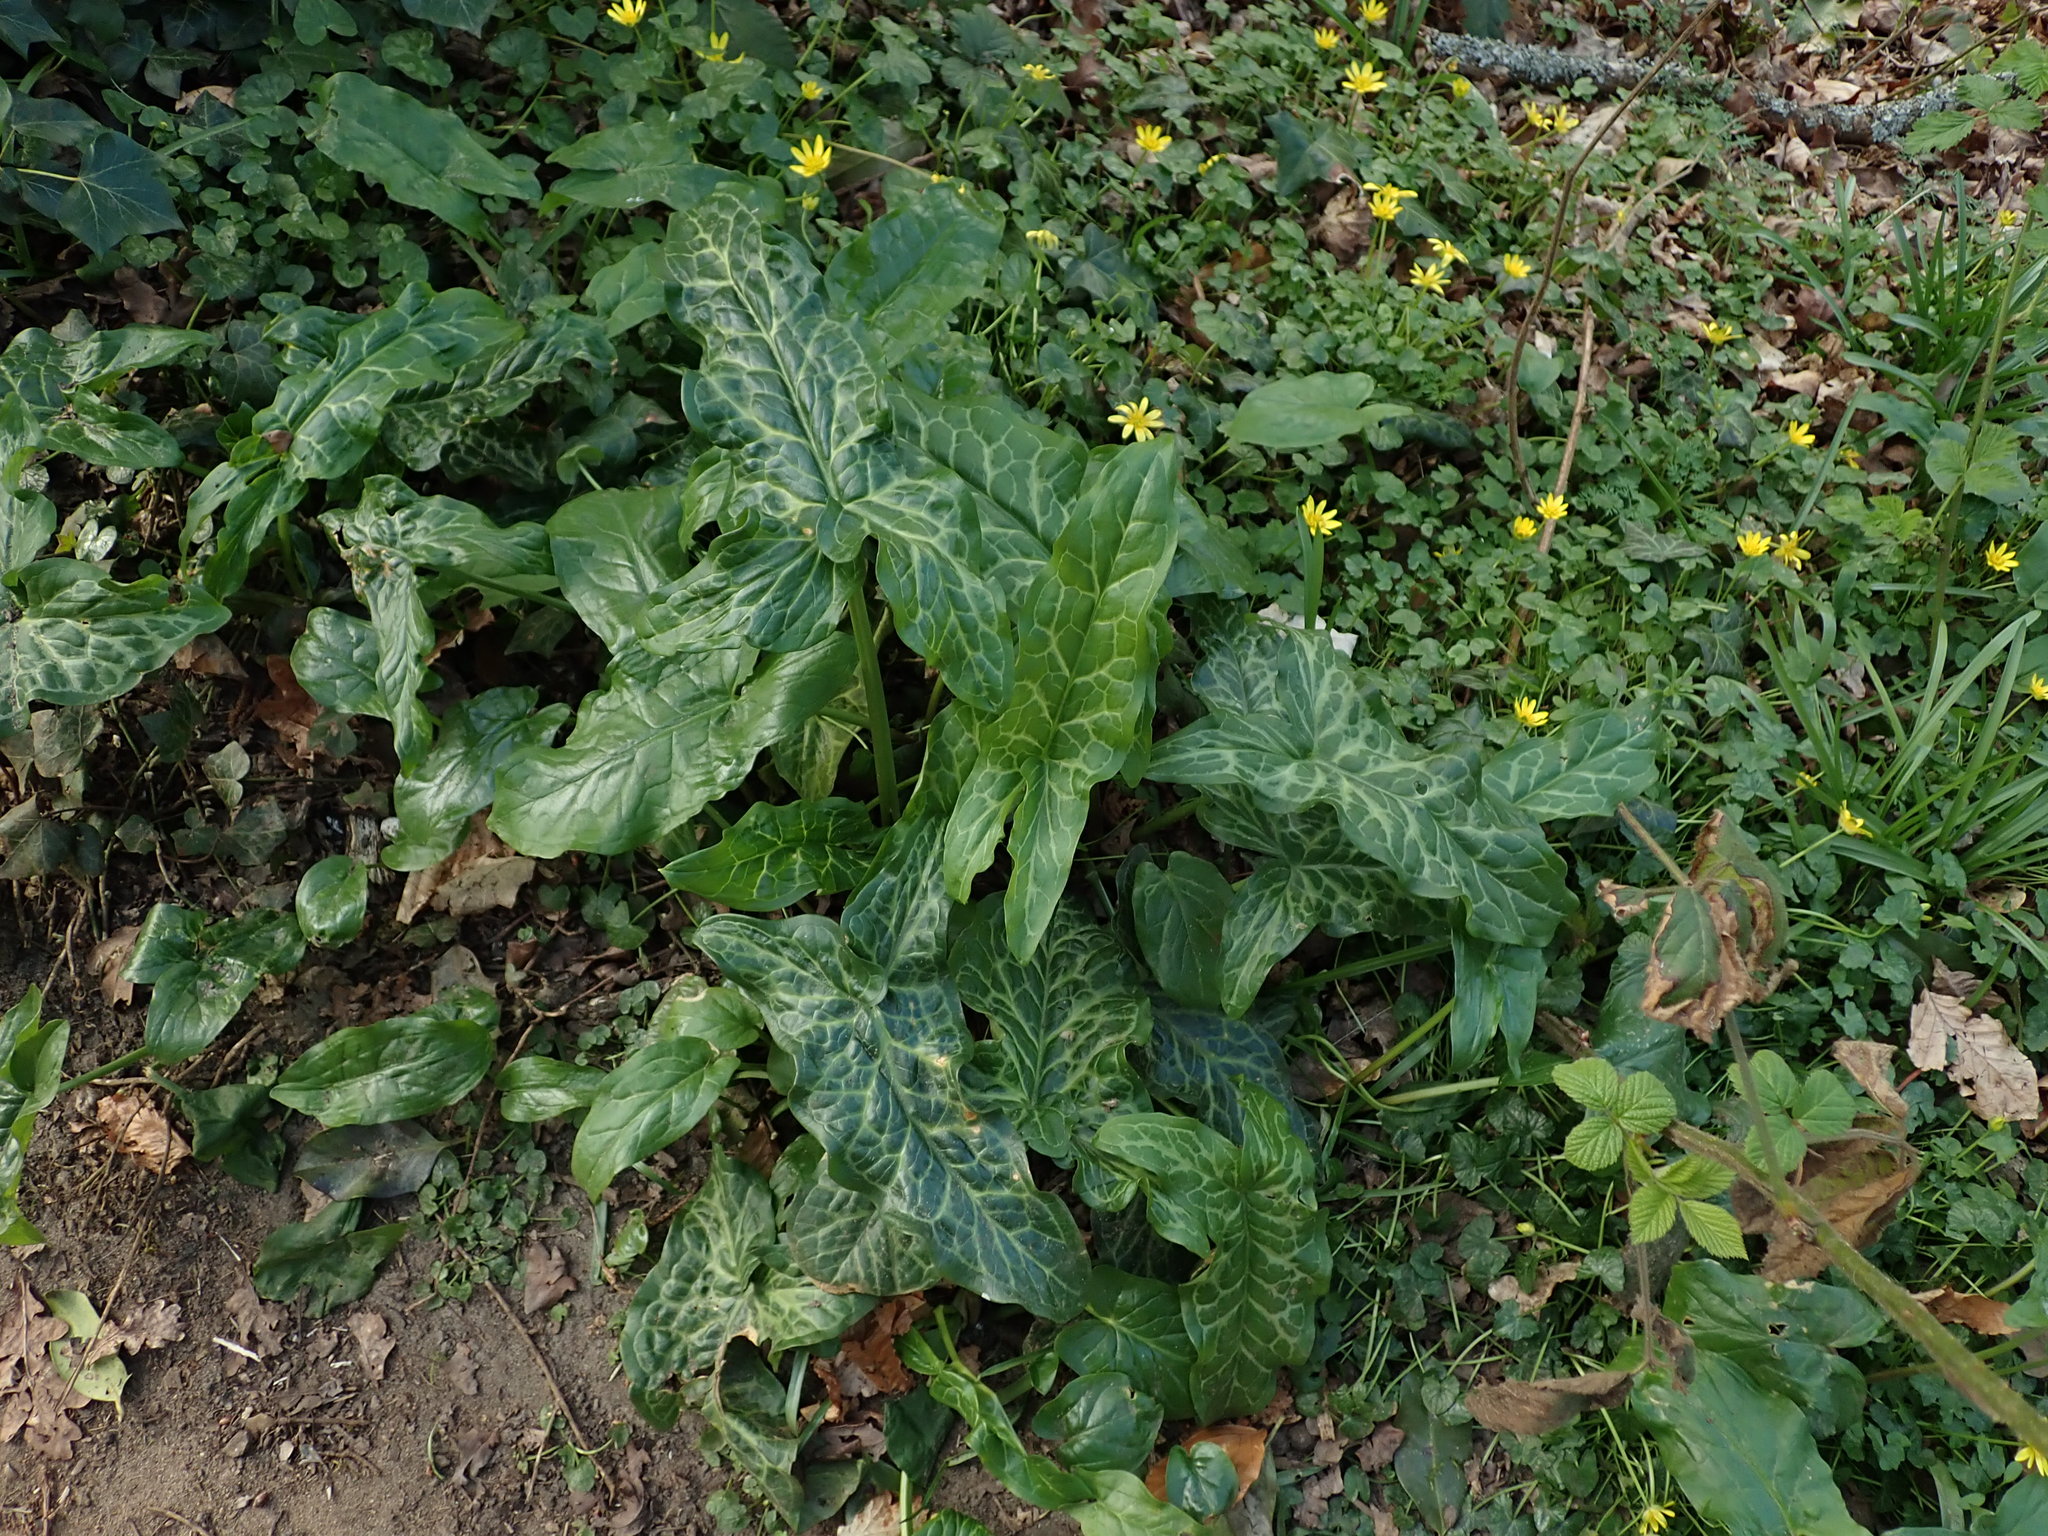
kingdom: Plantae
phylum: Tracheophyta
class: Liliopsida
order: Alismatales
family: Araceae
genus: Arum
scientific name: Arum italicum
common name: Italian lords-and-ladies
